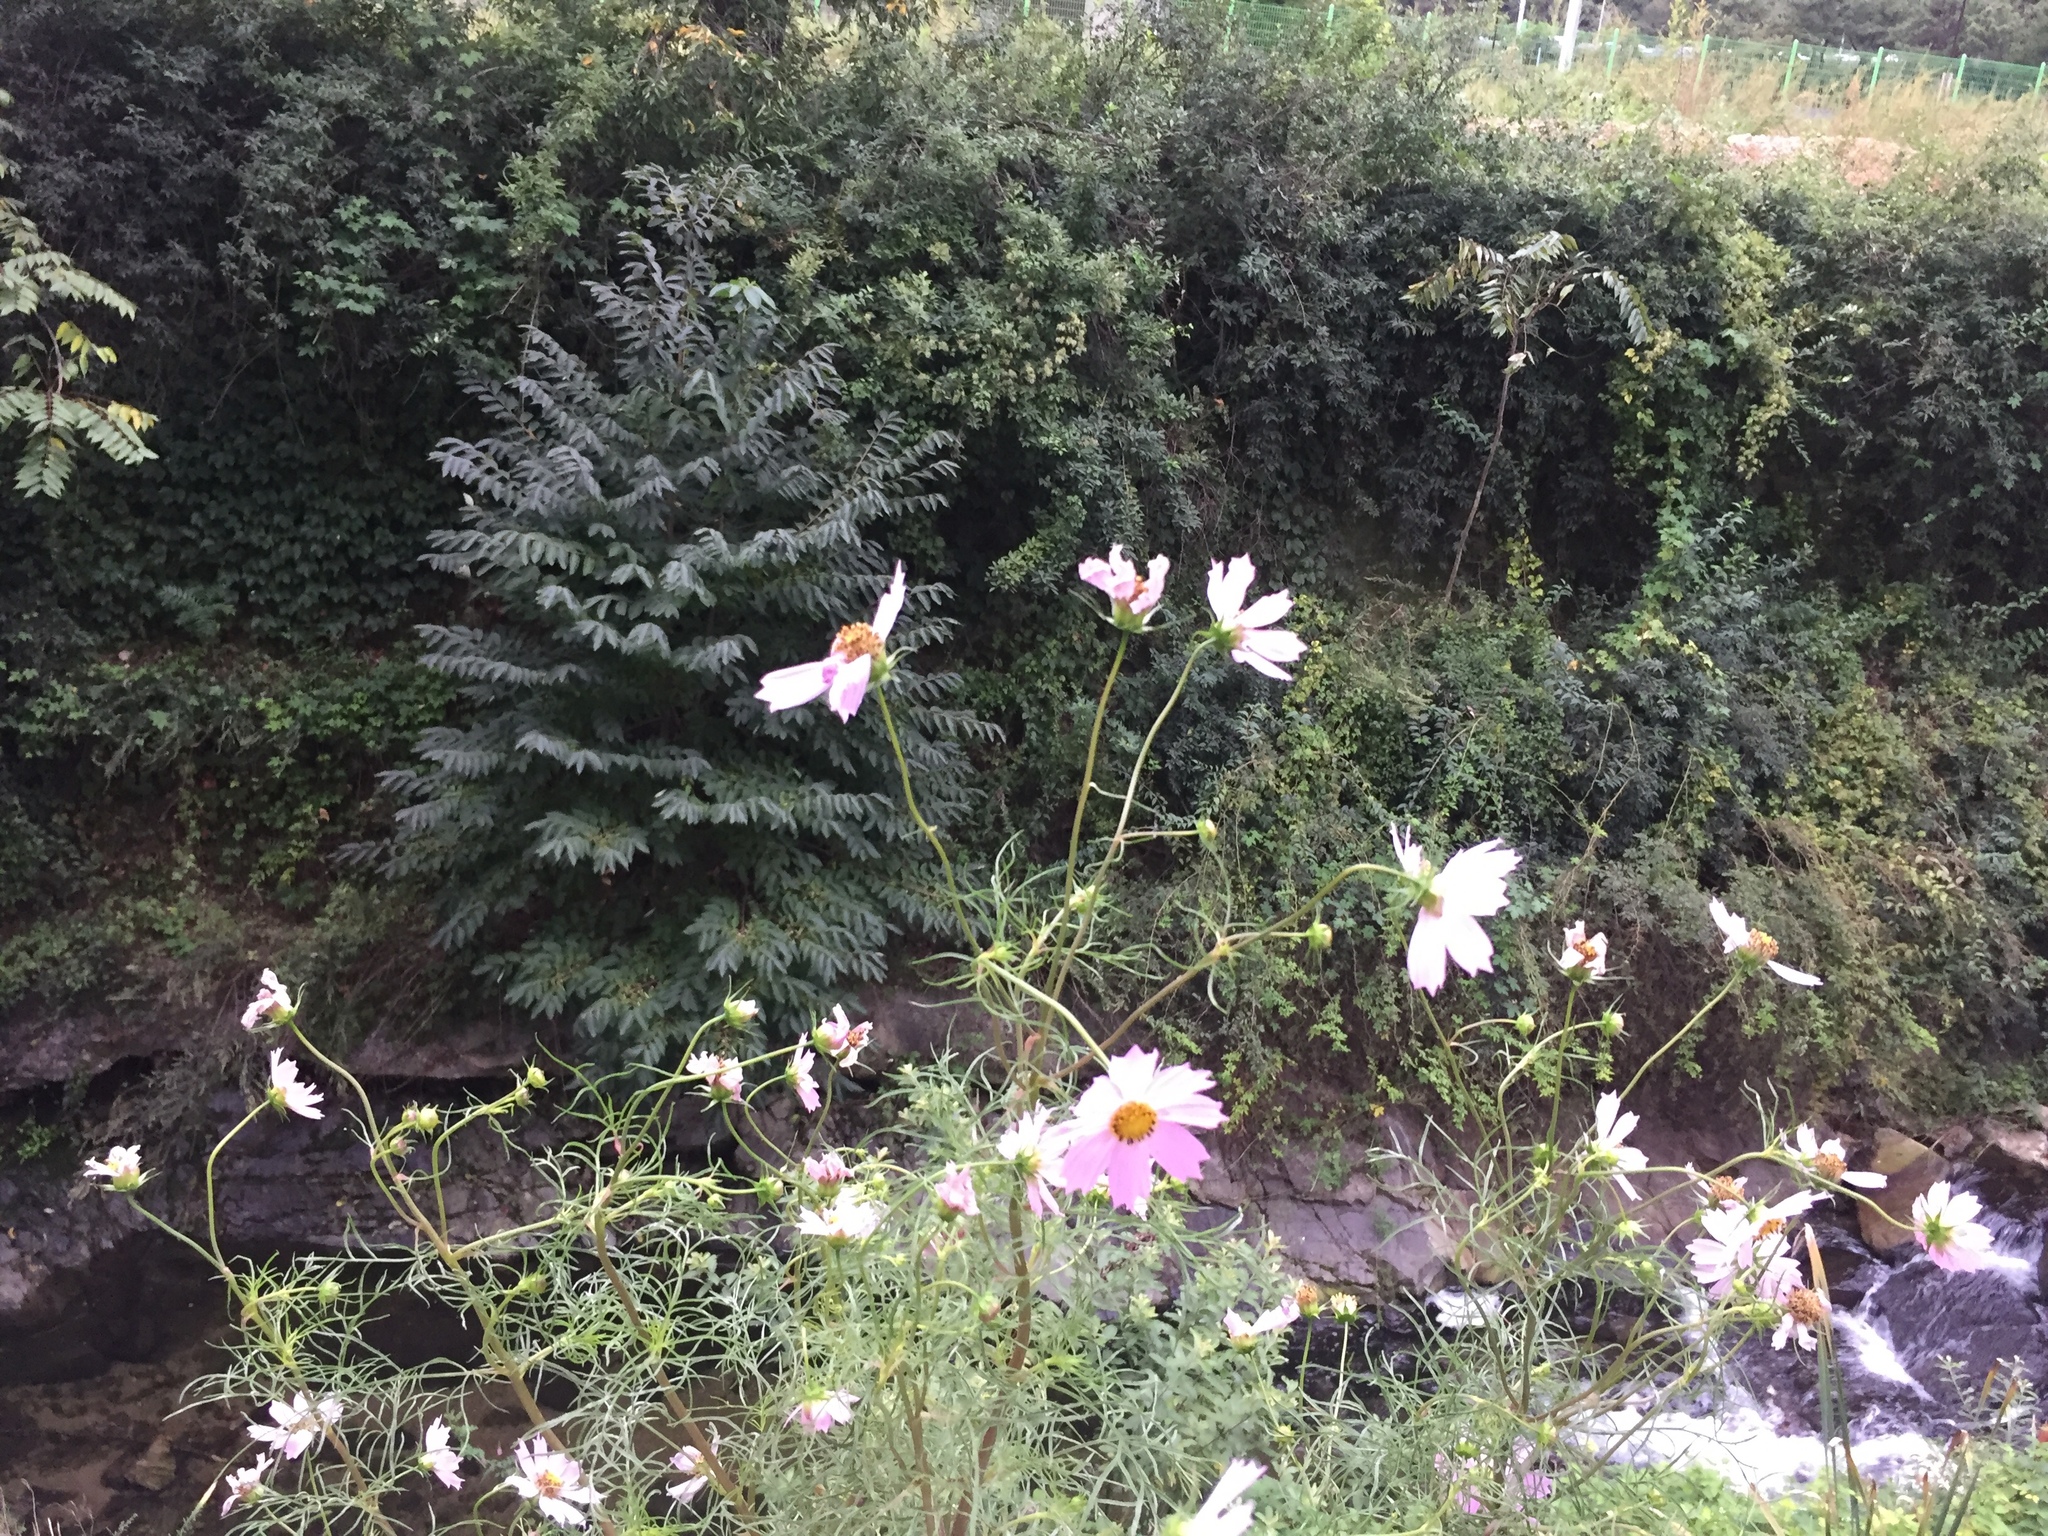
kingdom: Plantae
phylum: Tracheophyta
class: Magnoliopsida
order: Asterales
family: Asteraceae
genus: Cosmos
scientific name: Cosmos bipinnatus
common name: Garden cosmos
